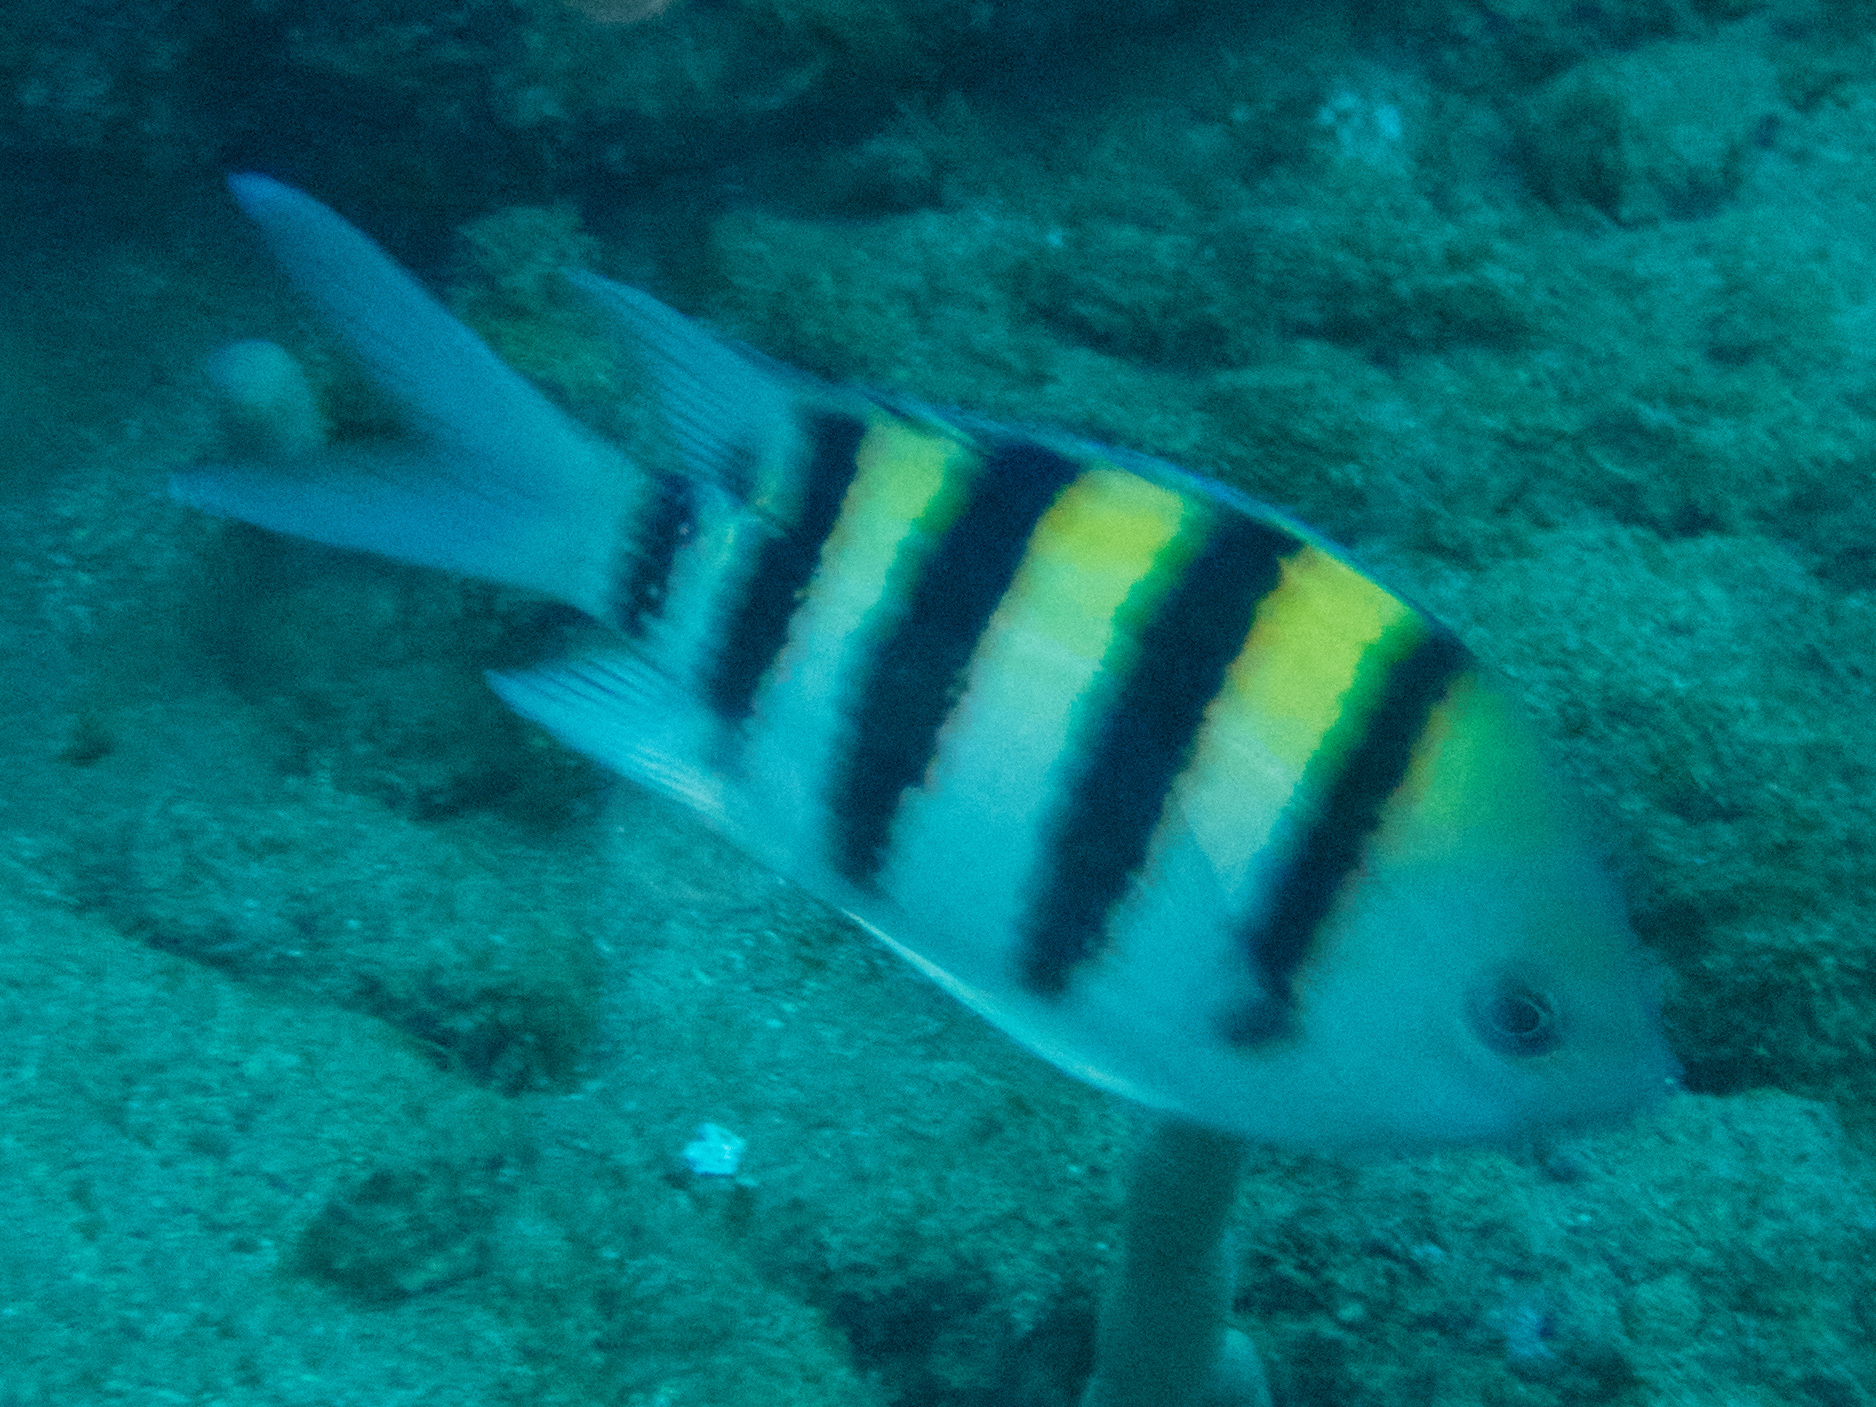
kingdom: Animalia
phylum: Chordata
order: Perciformes
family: Pomacentridae
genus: Abudefduf
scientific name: Abudefduf vaigiensis
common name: Indo-pacific sergeant
